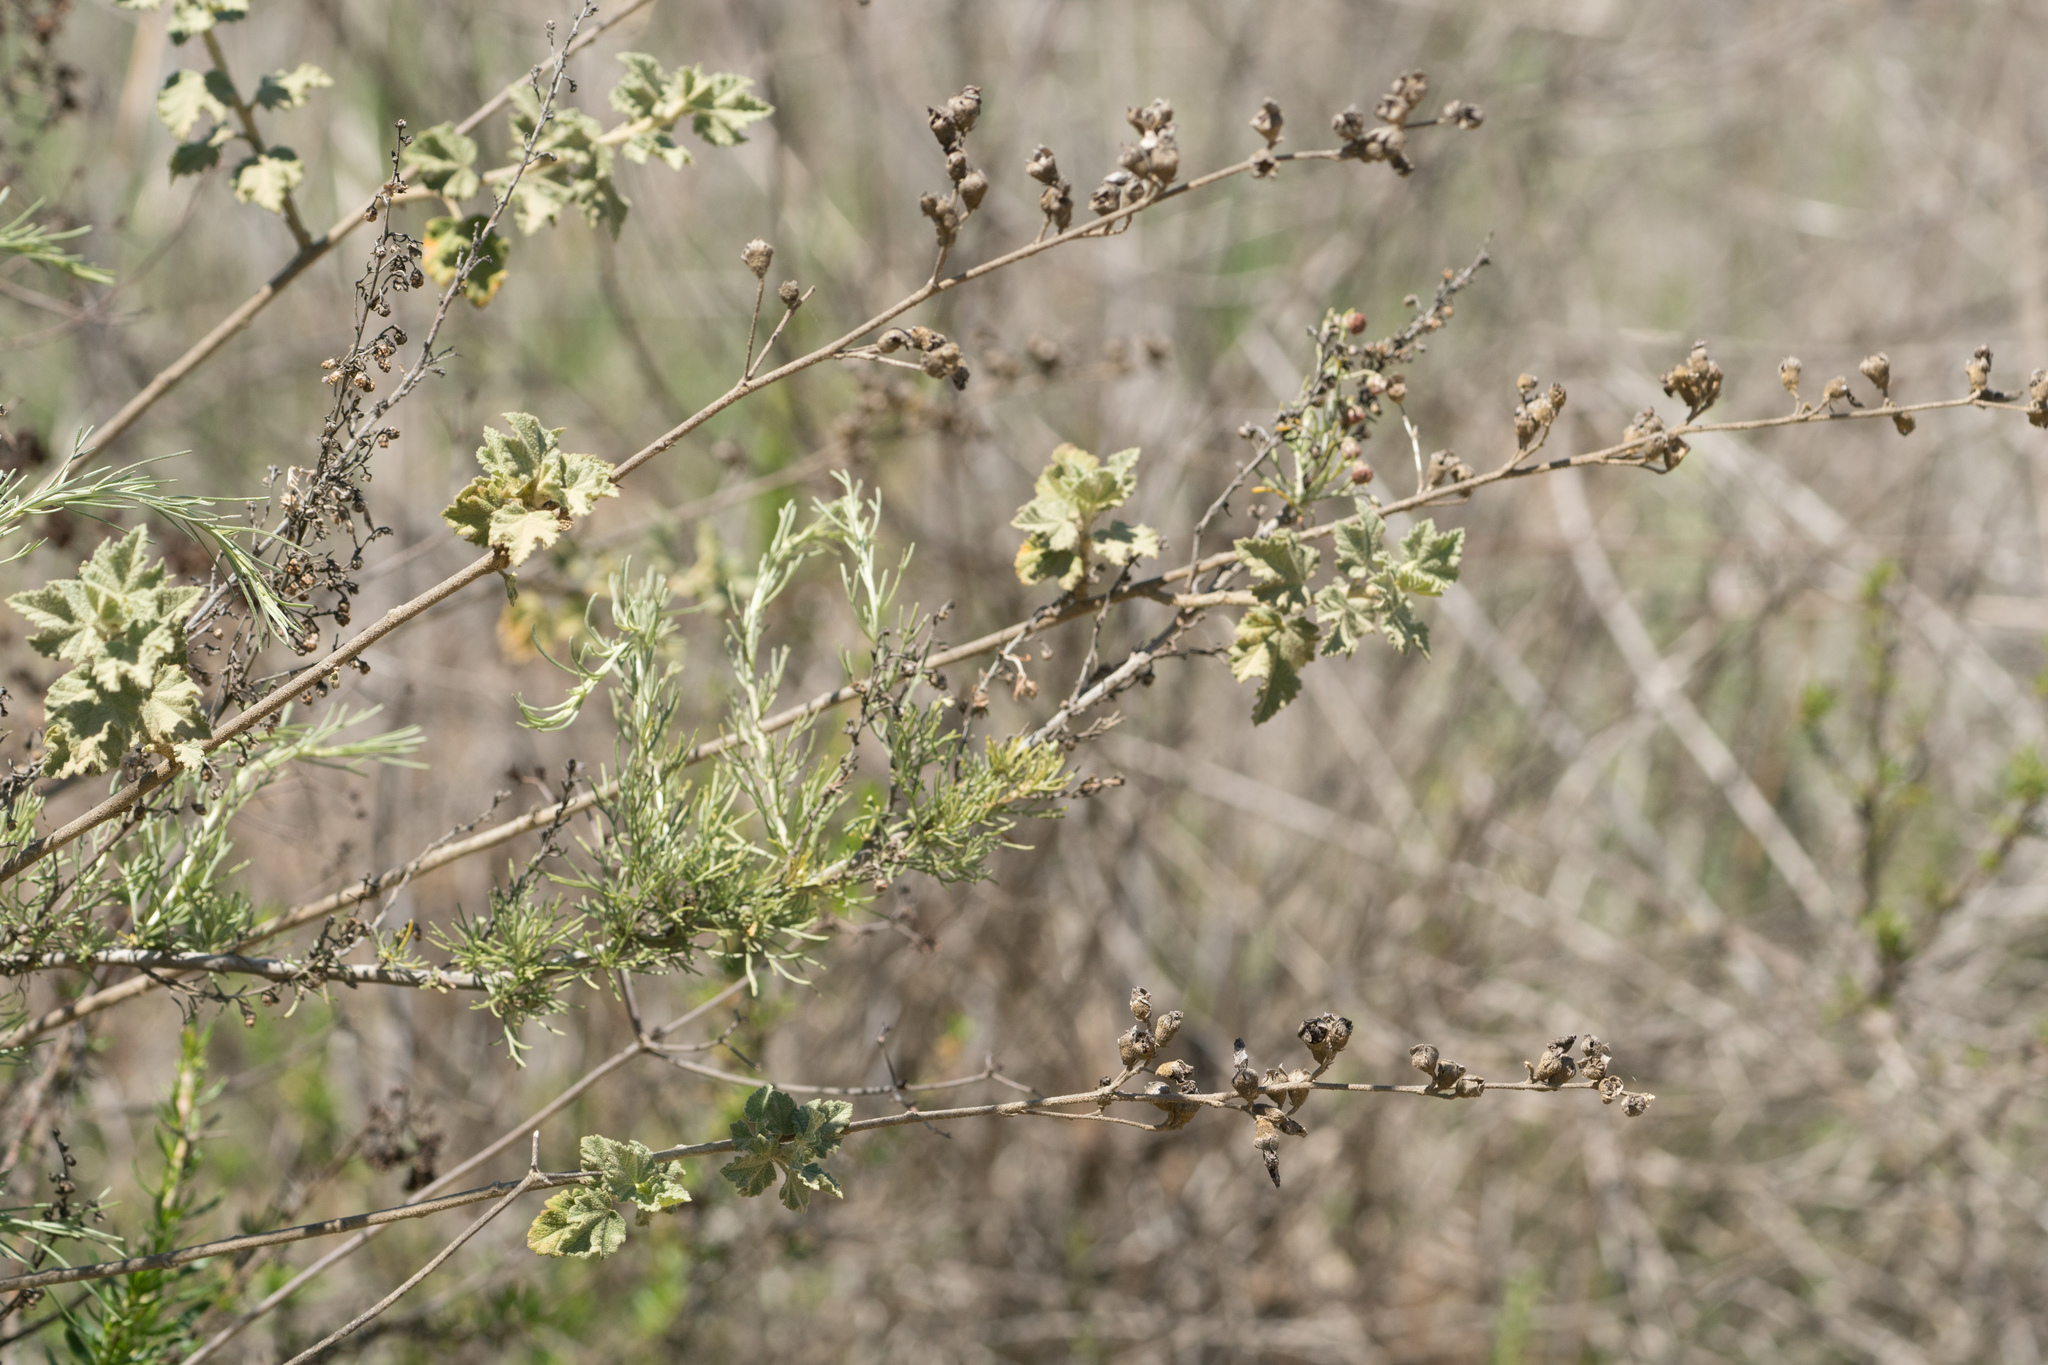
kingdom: Plantae
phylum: Tracheophyta
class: Magnoliopsida
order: Malvales
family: Malvaceae
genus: Malacothamnus
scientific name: Malacothamnus fasciculatus
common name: Sant cruz island bush-mallow
